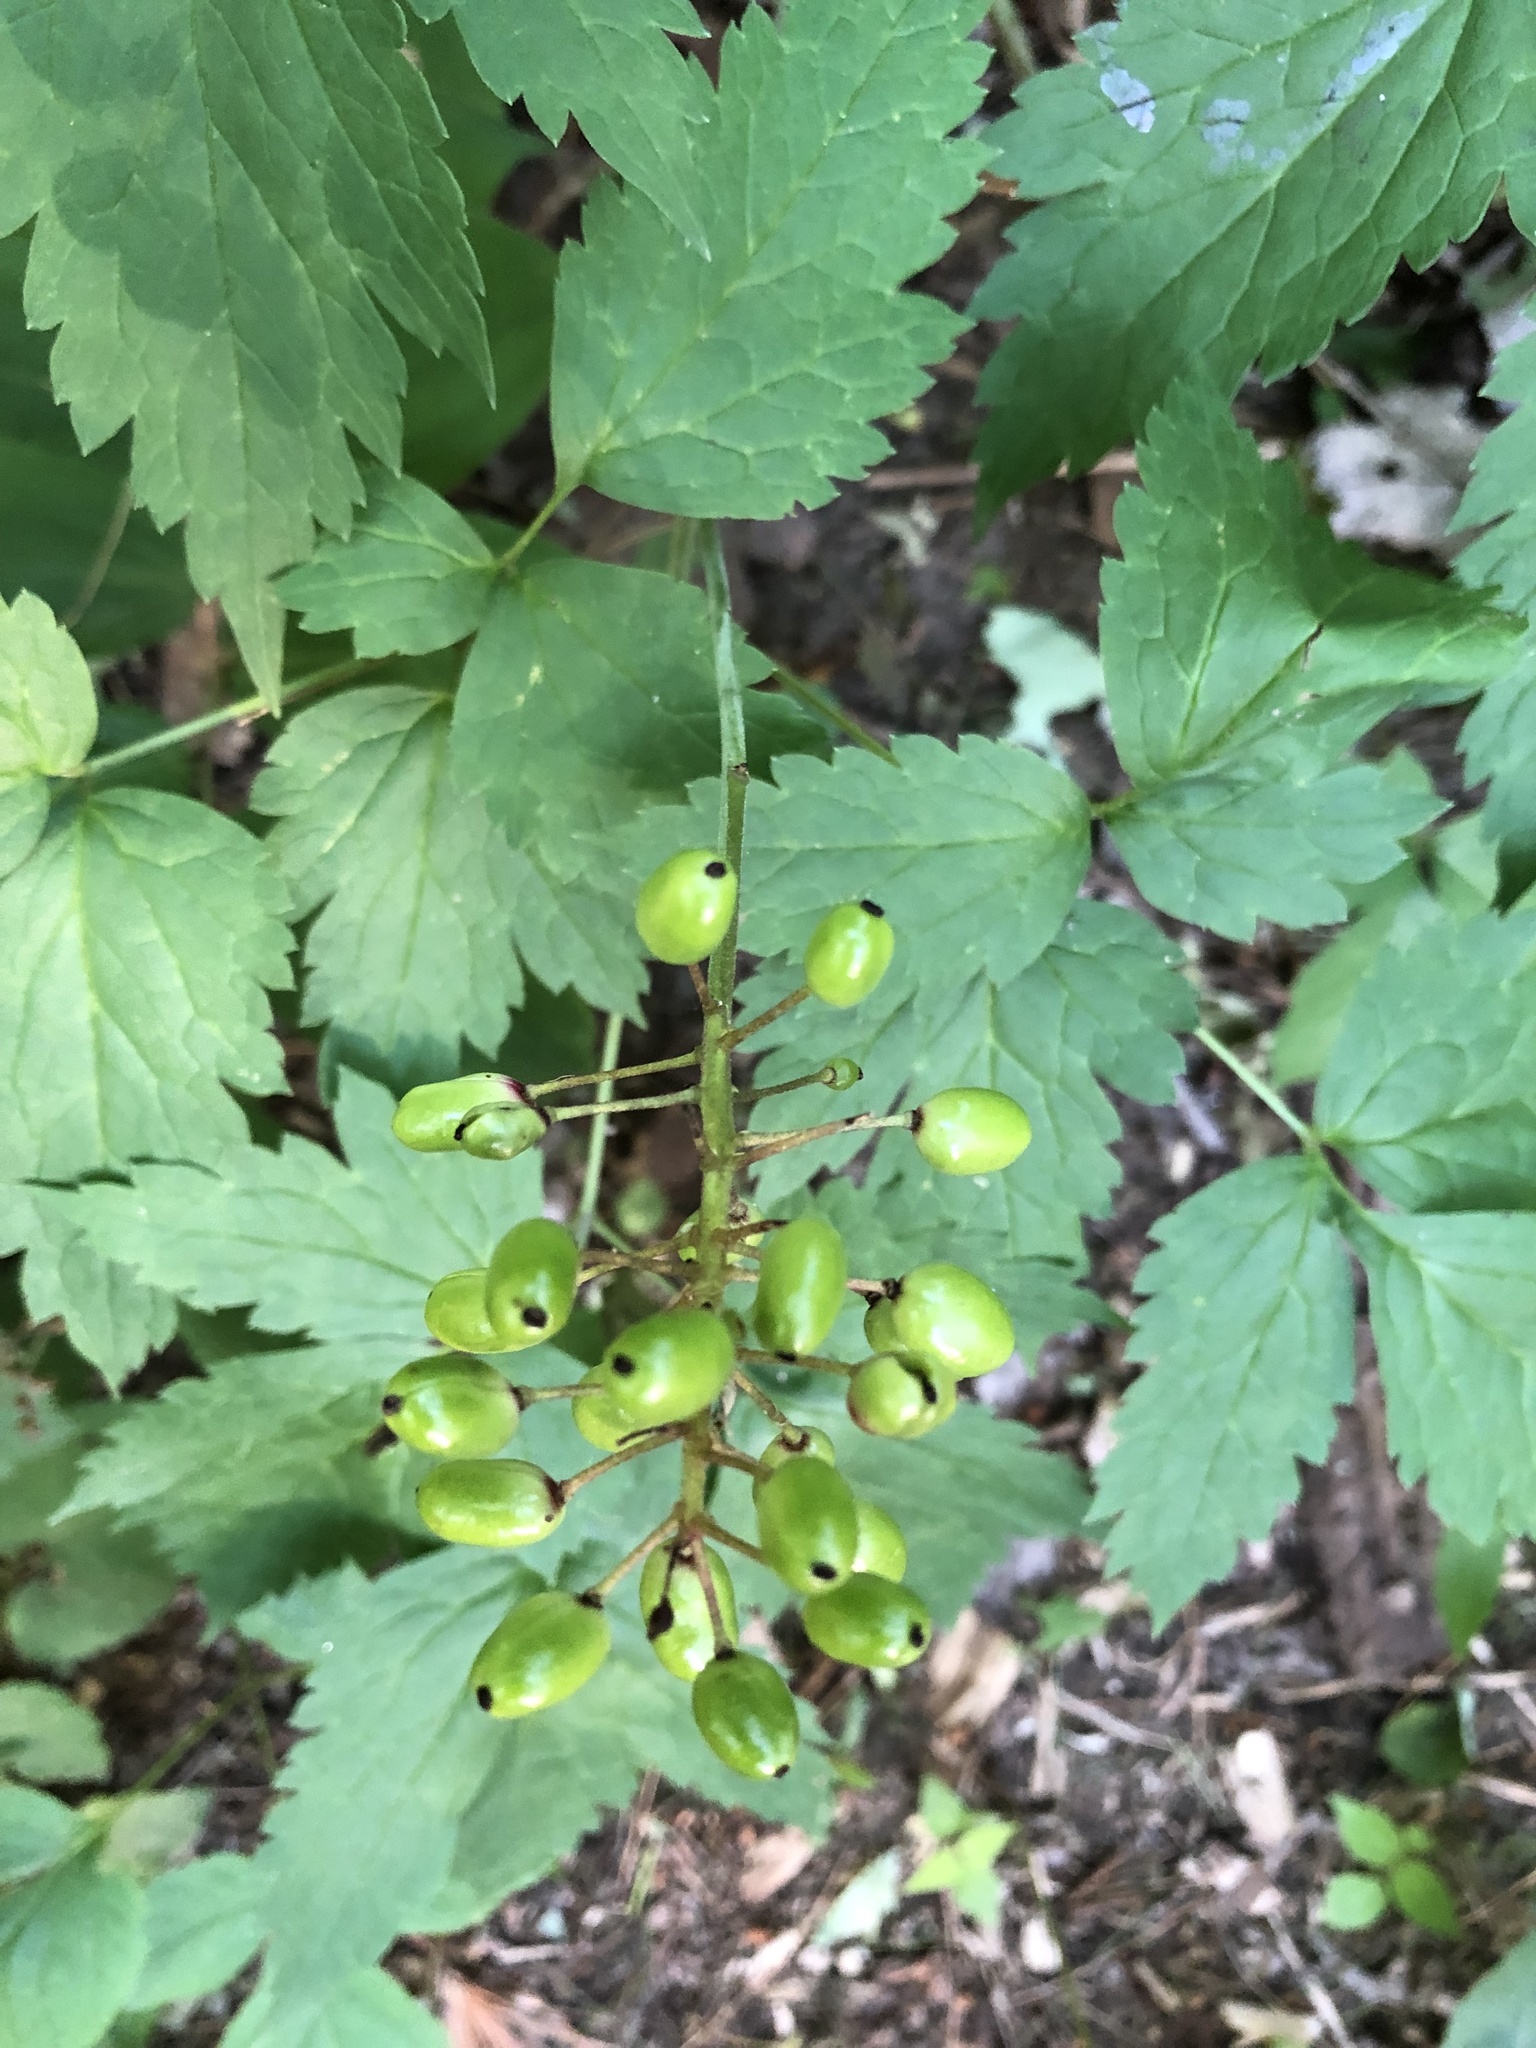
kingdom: Plantae
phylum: Tracheophyta
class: Magnoliopsida
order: Ranunculales
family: Ranunculaceae
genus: Actaea
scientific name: Actaea rubra
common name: Red baneberry
